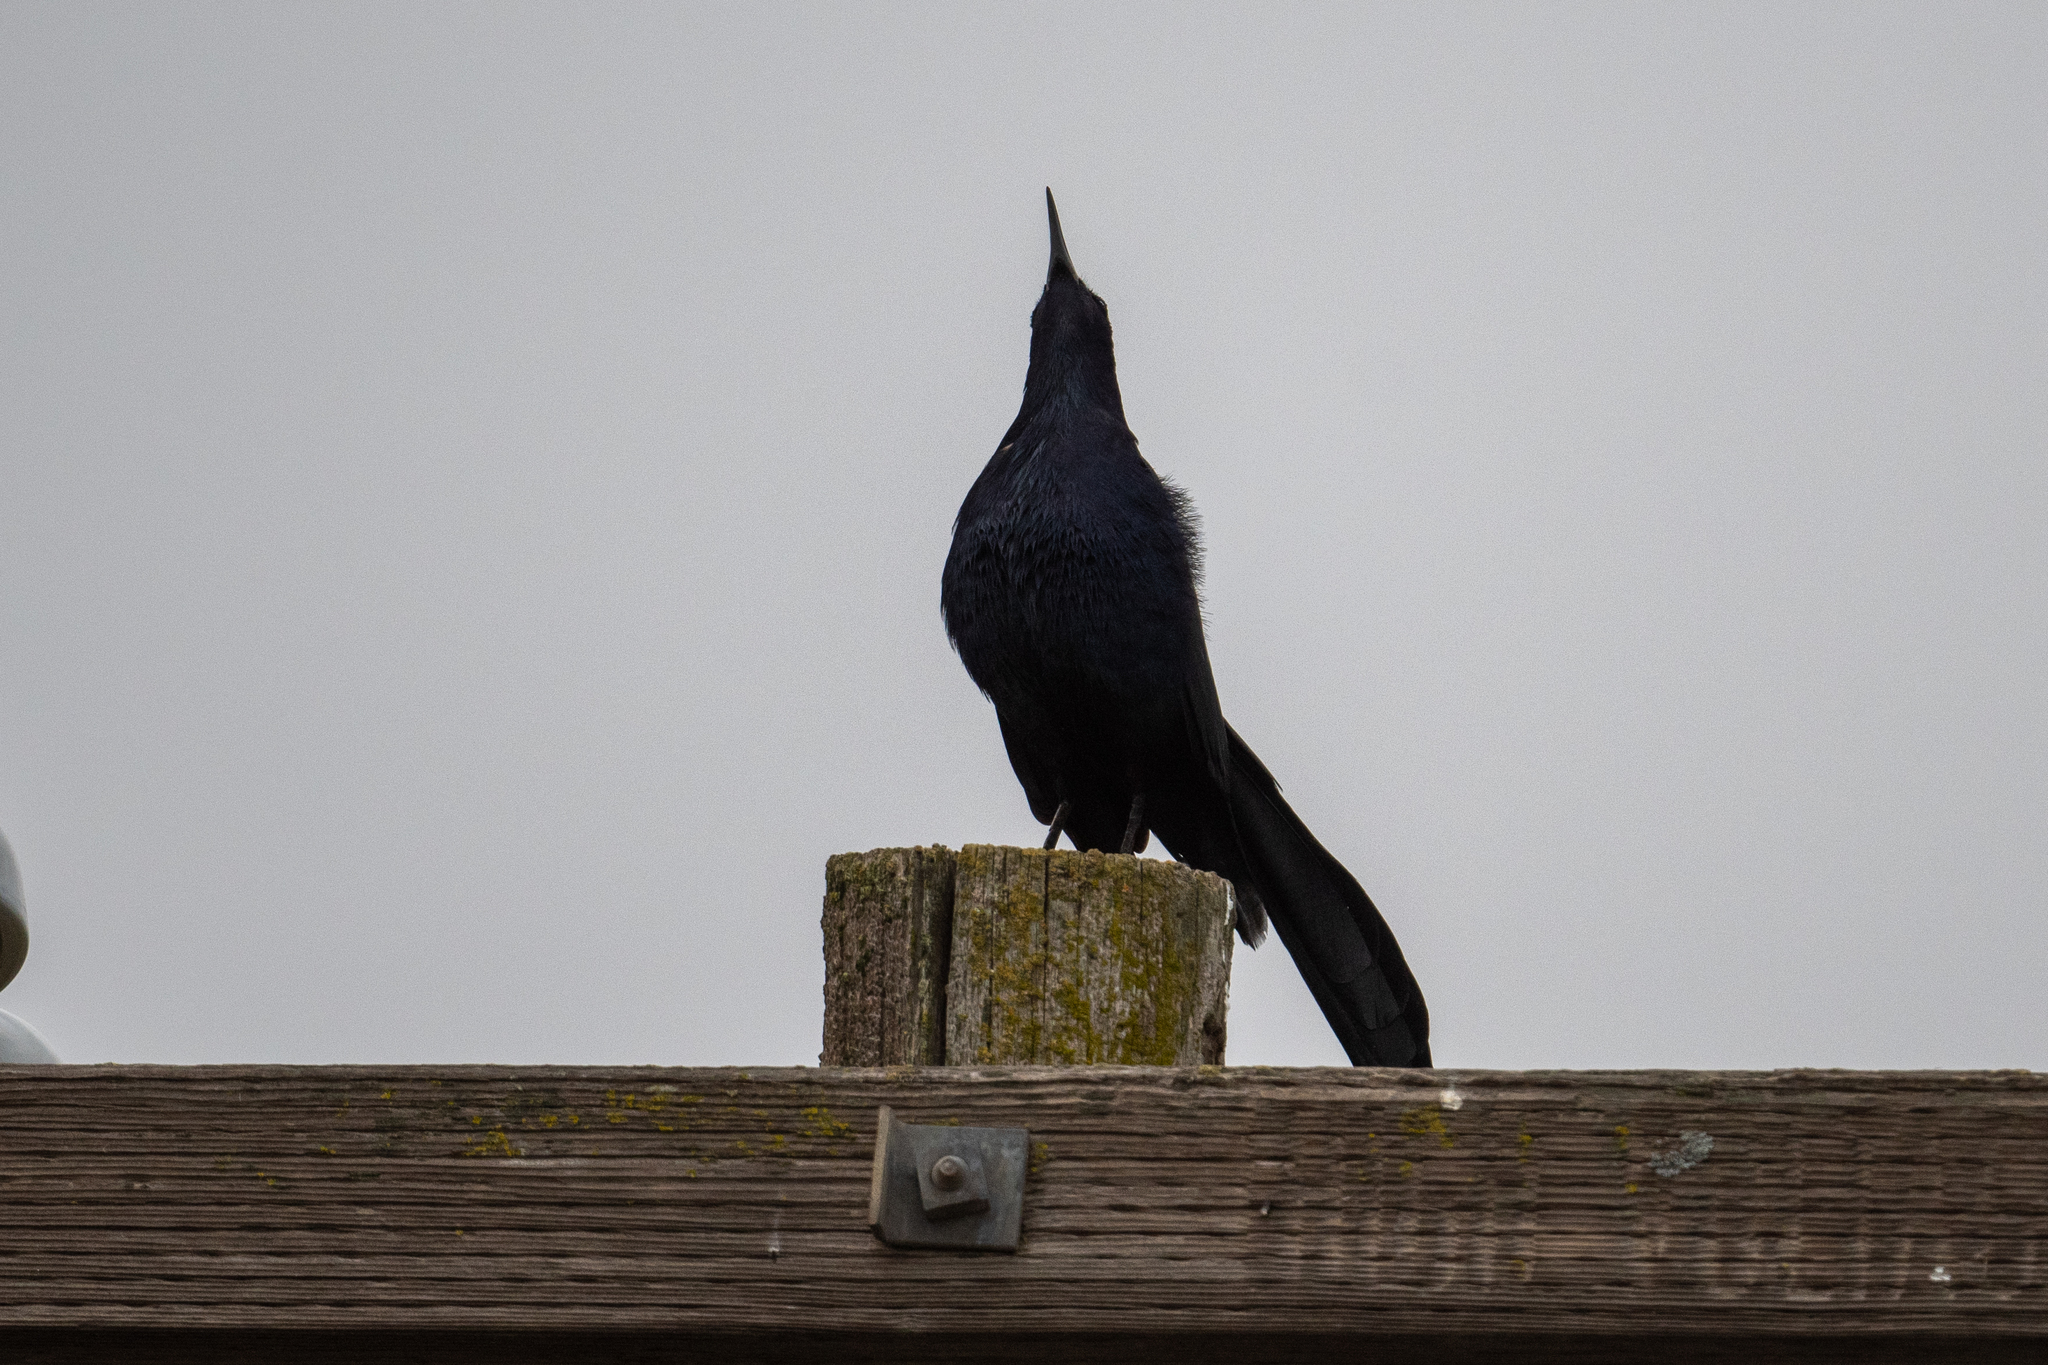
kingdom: Animalia
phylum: Chordata
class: Aves
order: Passeriformes
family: Icteridae
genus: Quiscalus
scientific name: Quiscalus mexicanus
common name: Great-tailed grackle
